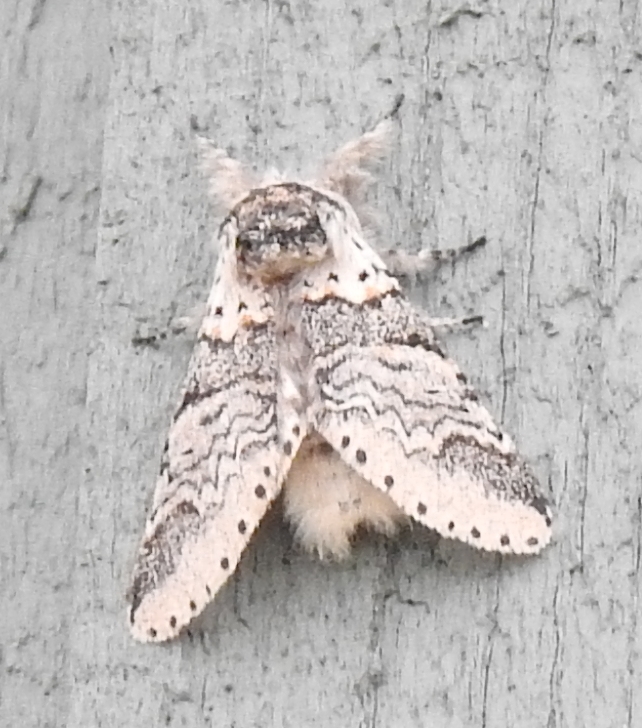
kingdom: Animalia
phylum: Arthropoda
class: Insecta
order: Lepidoptera
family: Notodontidae
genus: Furcula
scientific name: Furcula occidentalis
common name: Western furcula moth
